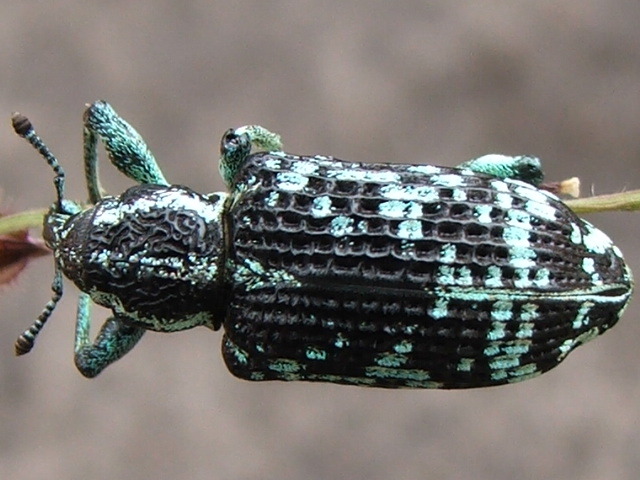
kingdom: Animalia
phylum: Arthropoda
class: Insecta
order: Coleoptera
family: Curculionidae
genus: Chrysolopus
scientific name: Chrysolopus spectabilis
